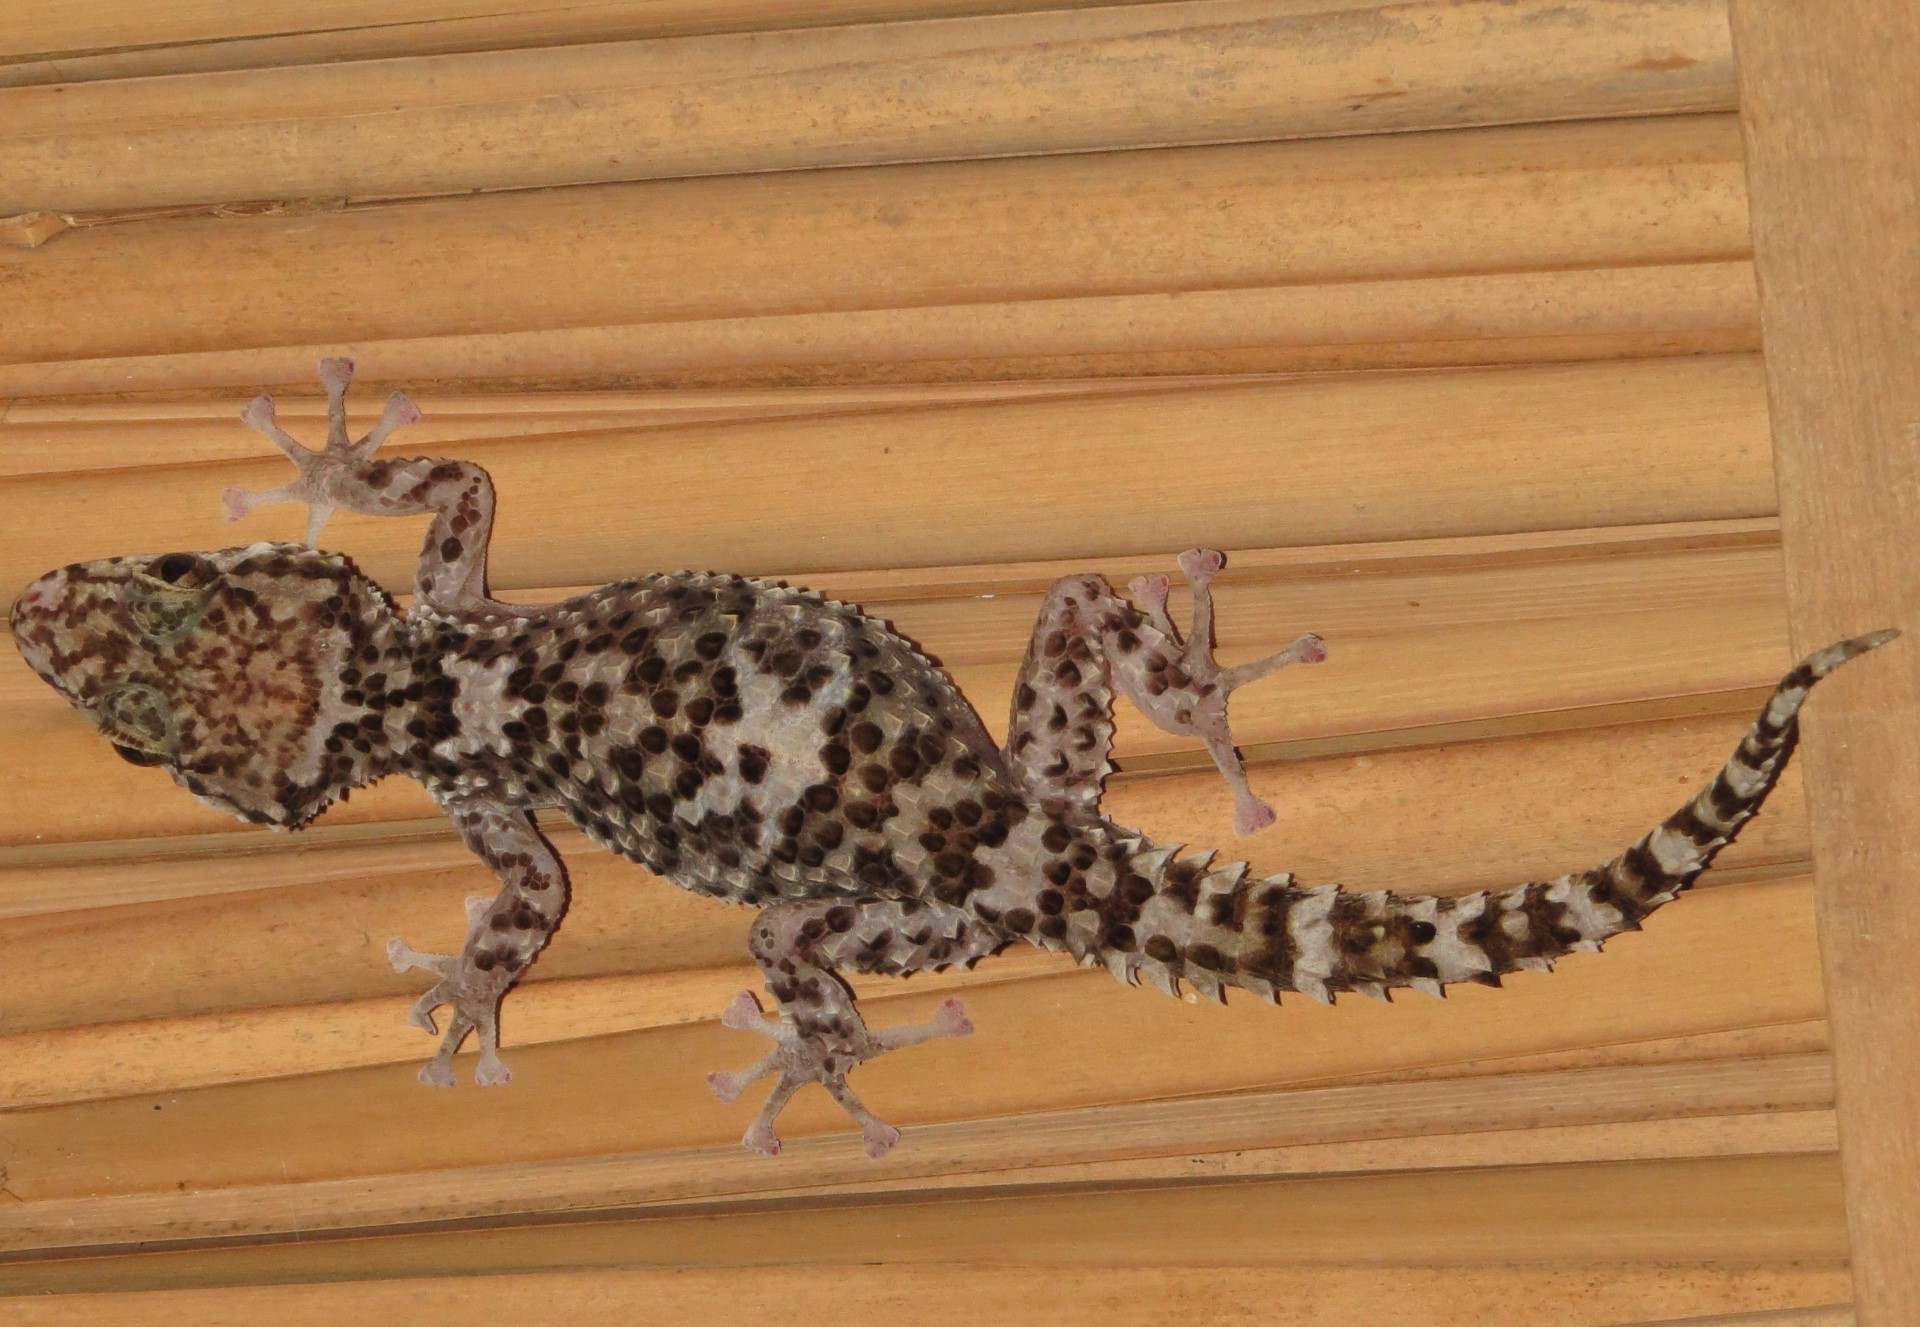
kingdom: Animalia
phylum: Chordata
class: Squamata
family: Gekkonidae
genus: Paroedura
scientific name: Paroedura rennerae
